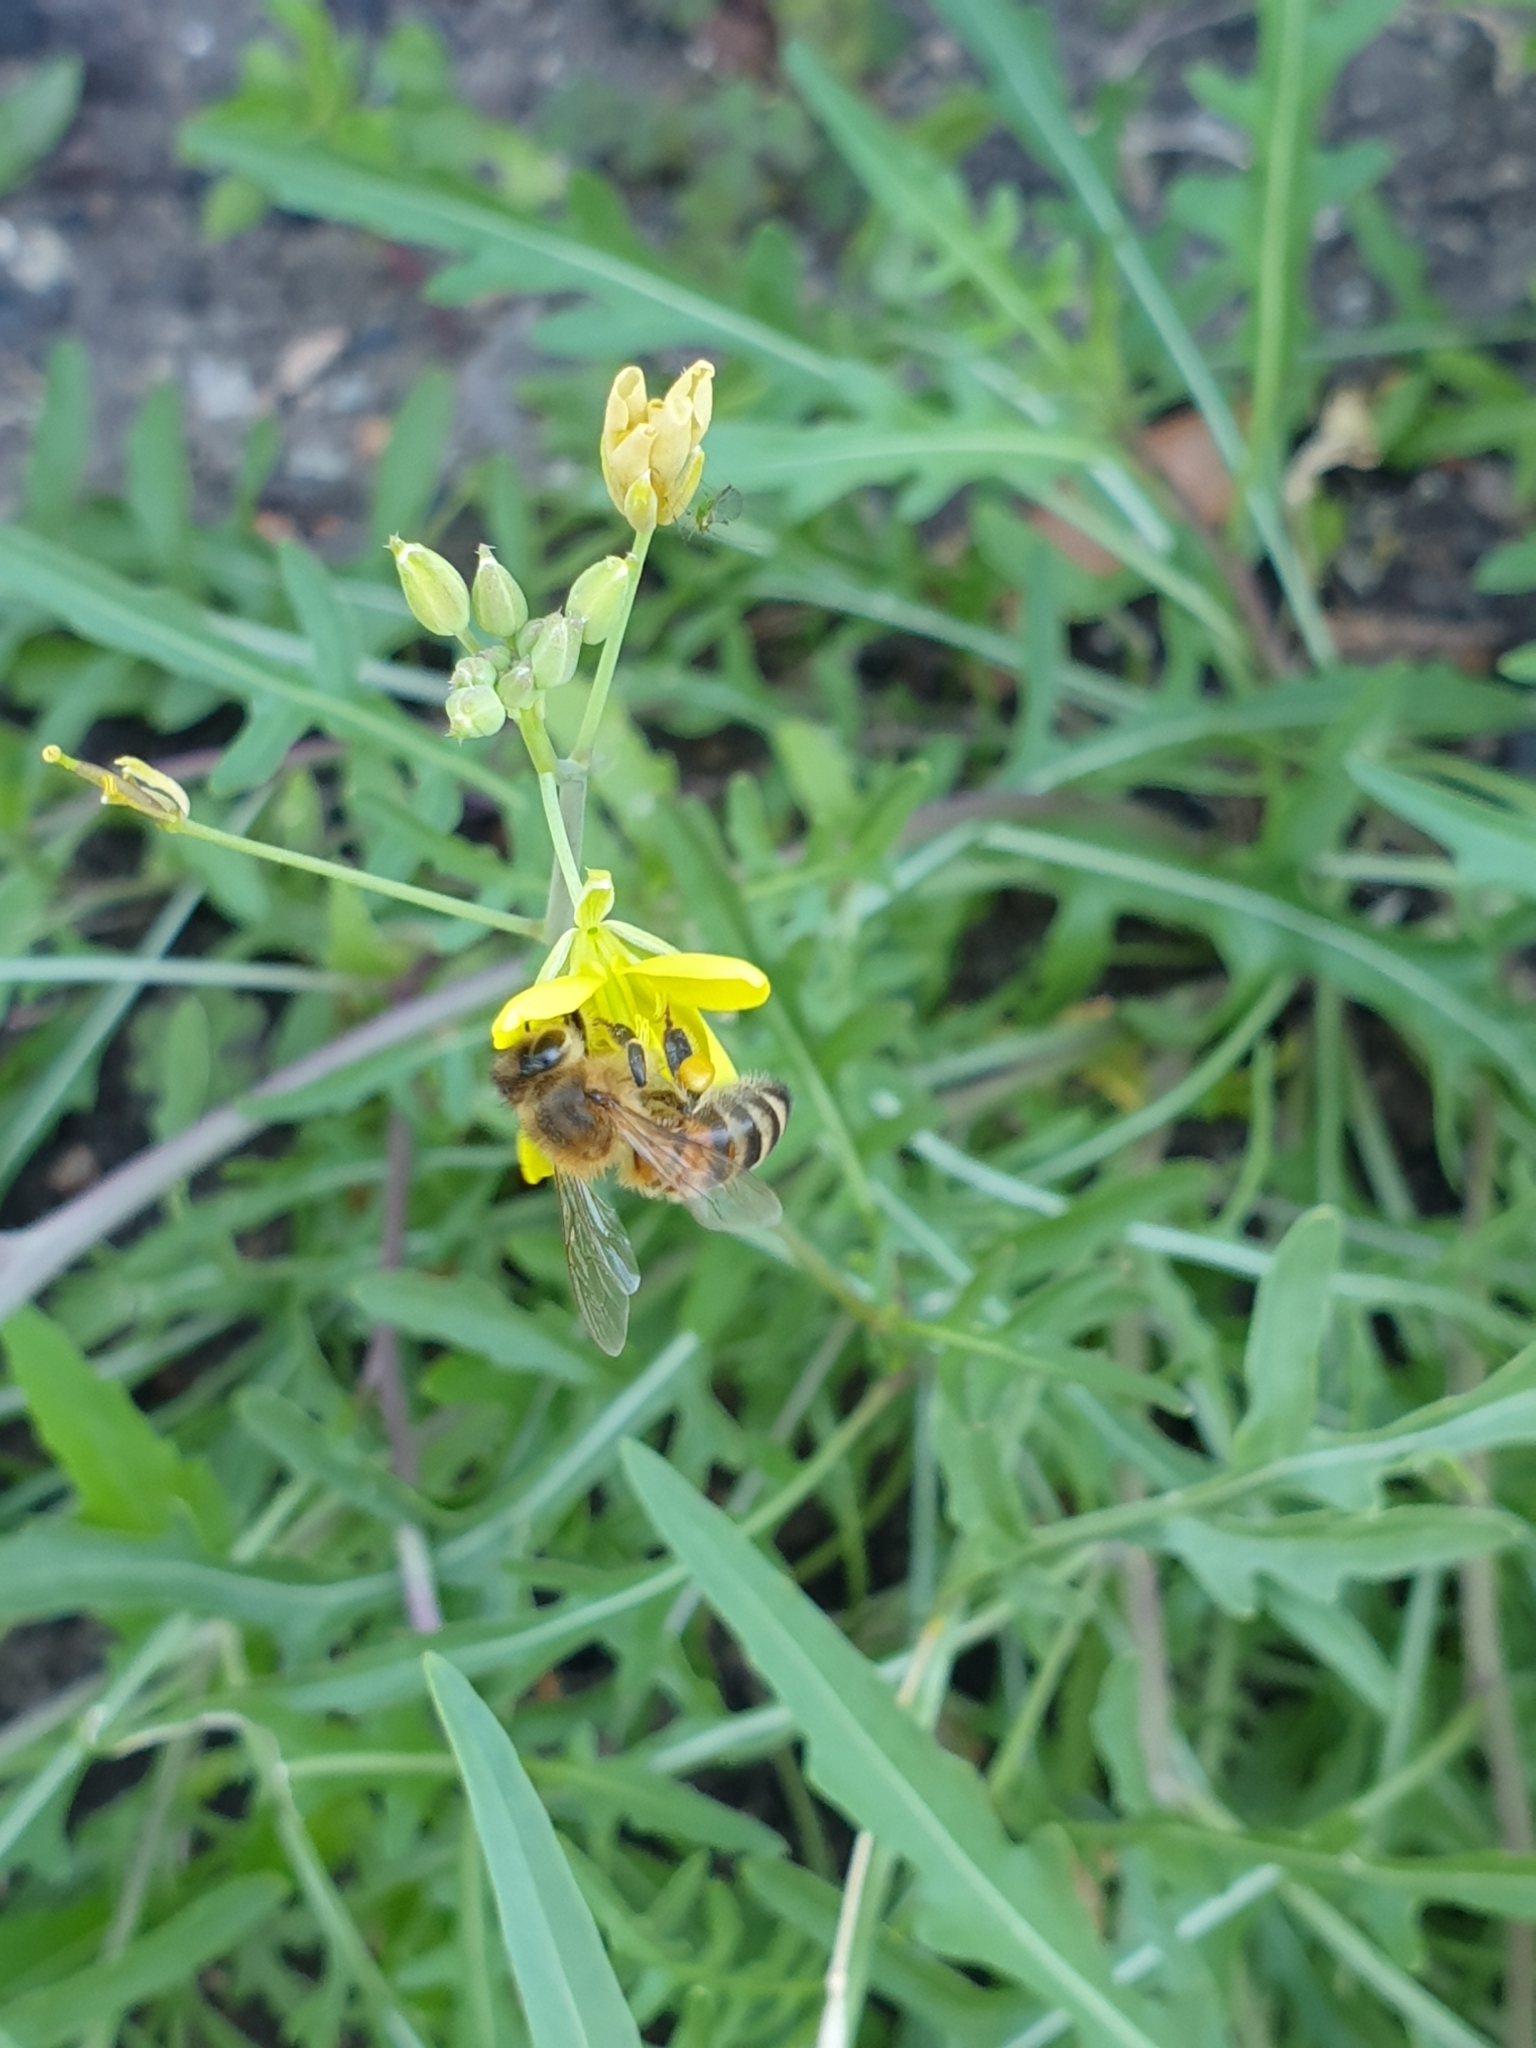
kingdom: Animalia
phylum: Arthropoda
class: Insecta
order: Hymenoptera
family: Apidae
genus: Apis
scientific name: Apis mellifera
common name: Honey bee
